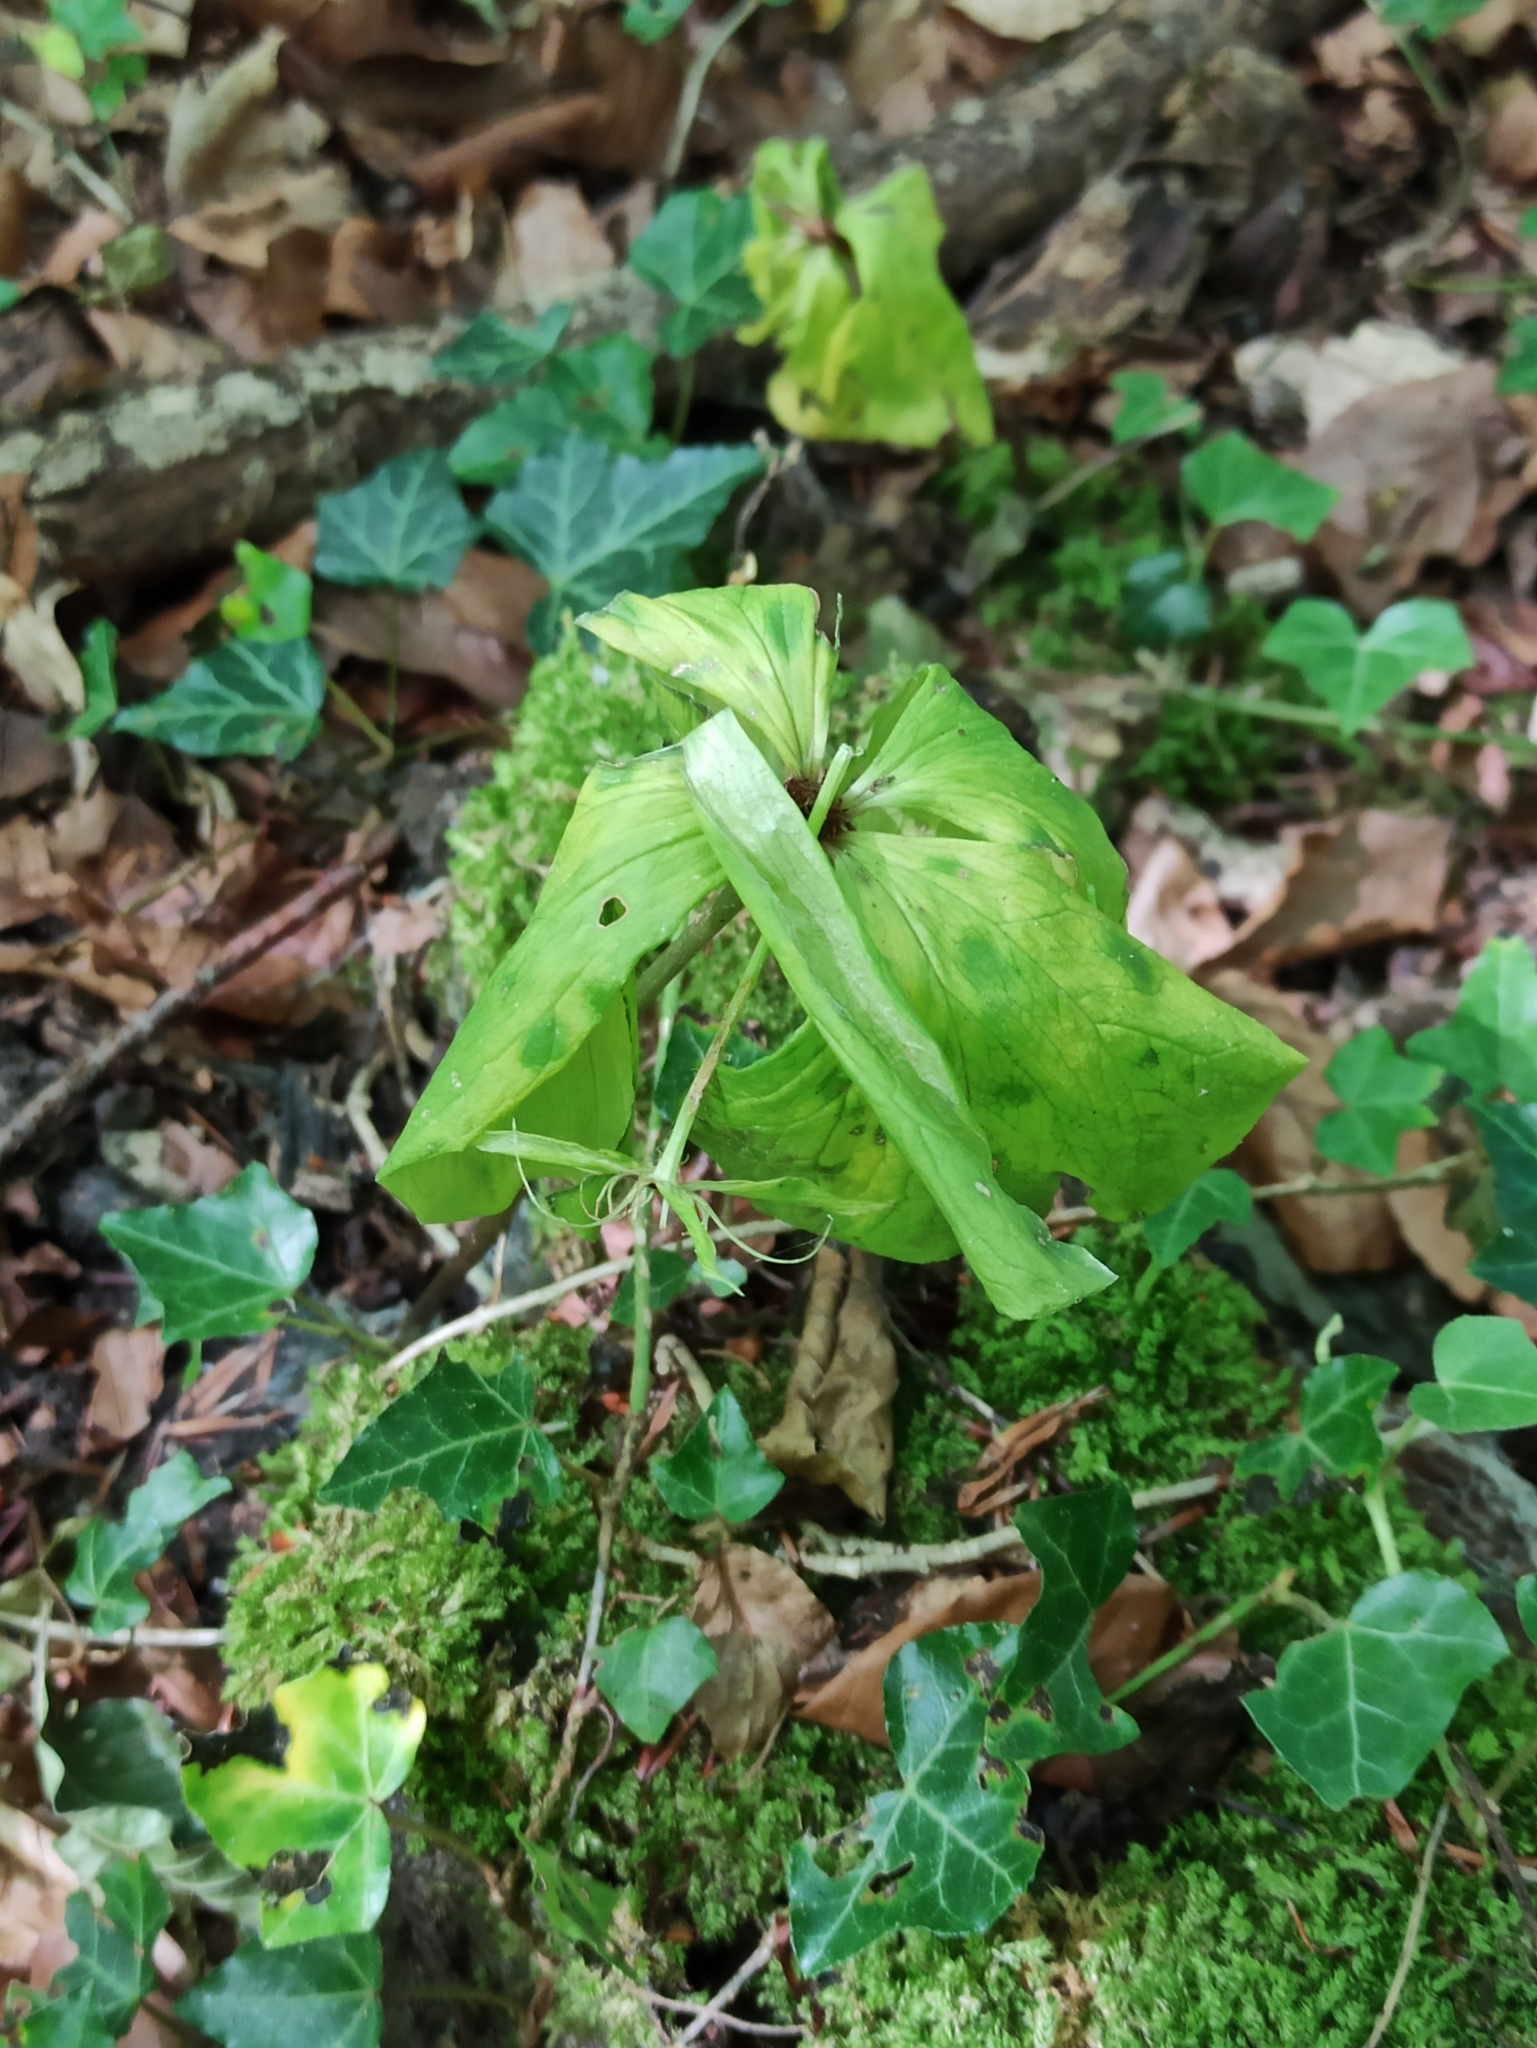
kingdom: Plantae
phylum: Tracheophyta
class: Liliopsida
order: Liliales
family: Melanthiaceae
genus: Paris
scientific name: Paris quadrifolia
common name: Herb-paris
